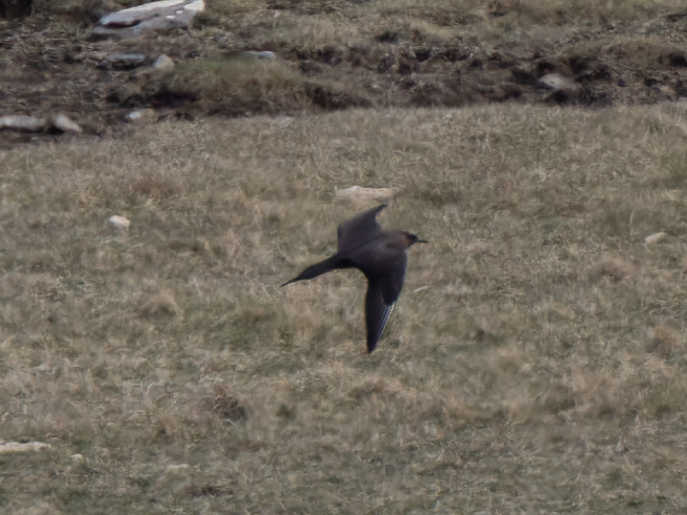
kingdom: Animalia
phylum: Chordata
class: Aves
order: Charadriiformes
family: Stercorariidae
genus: Stercorarius
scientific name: Stercorarius parasiticus
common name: Parasitic jaeger
